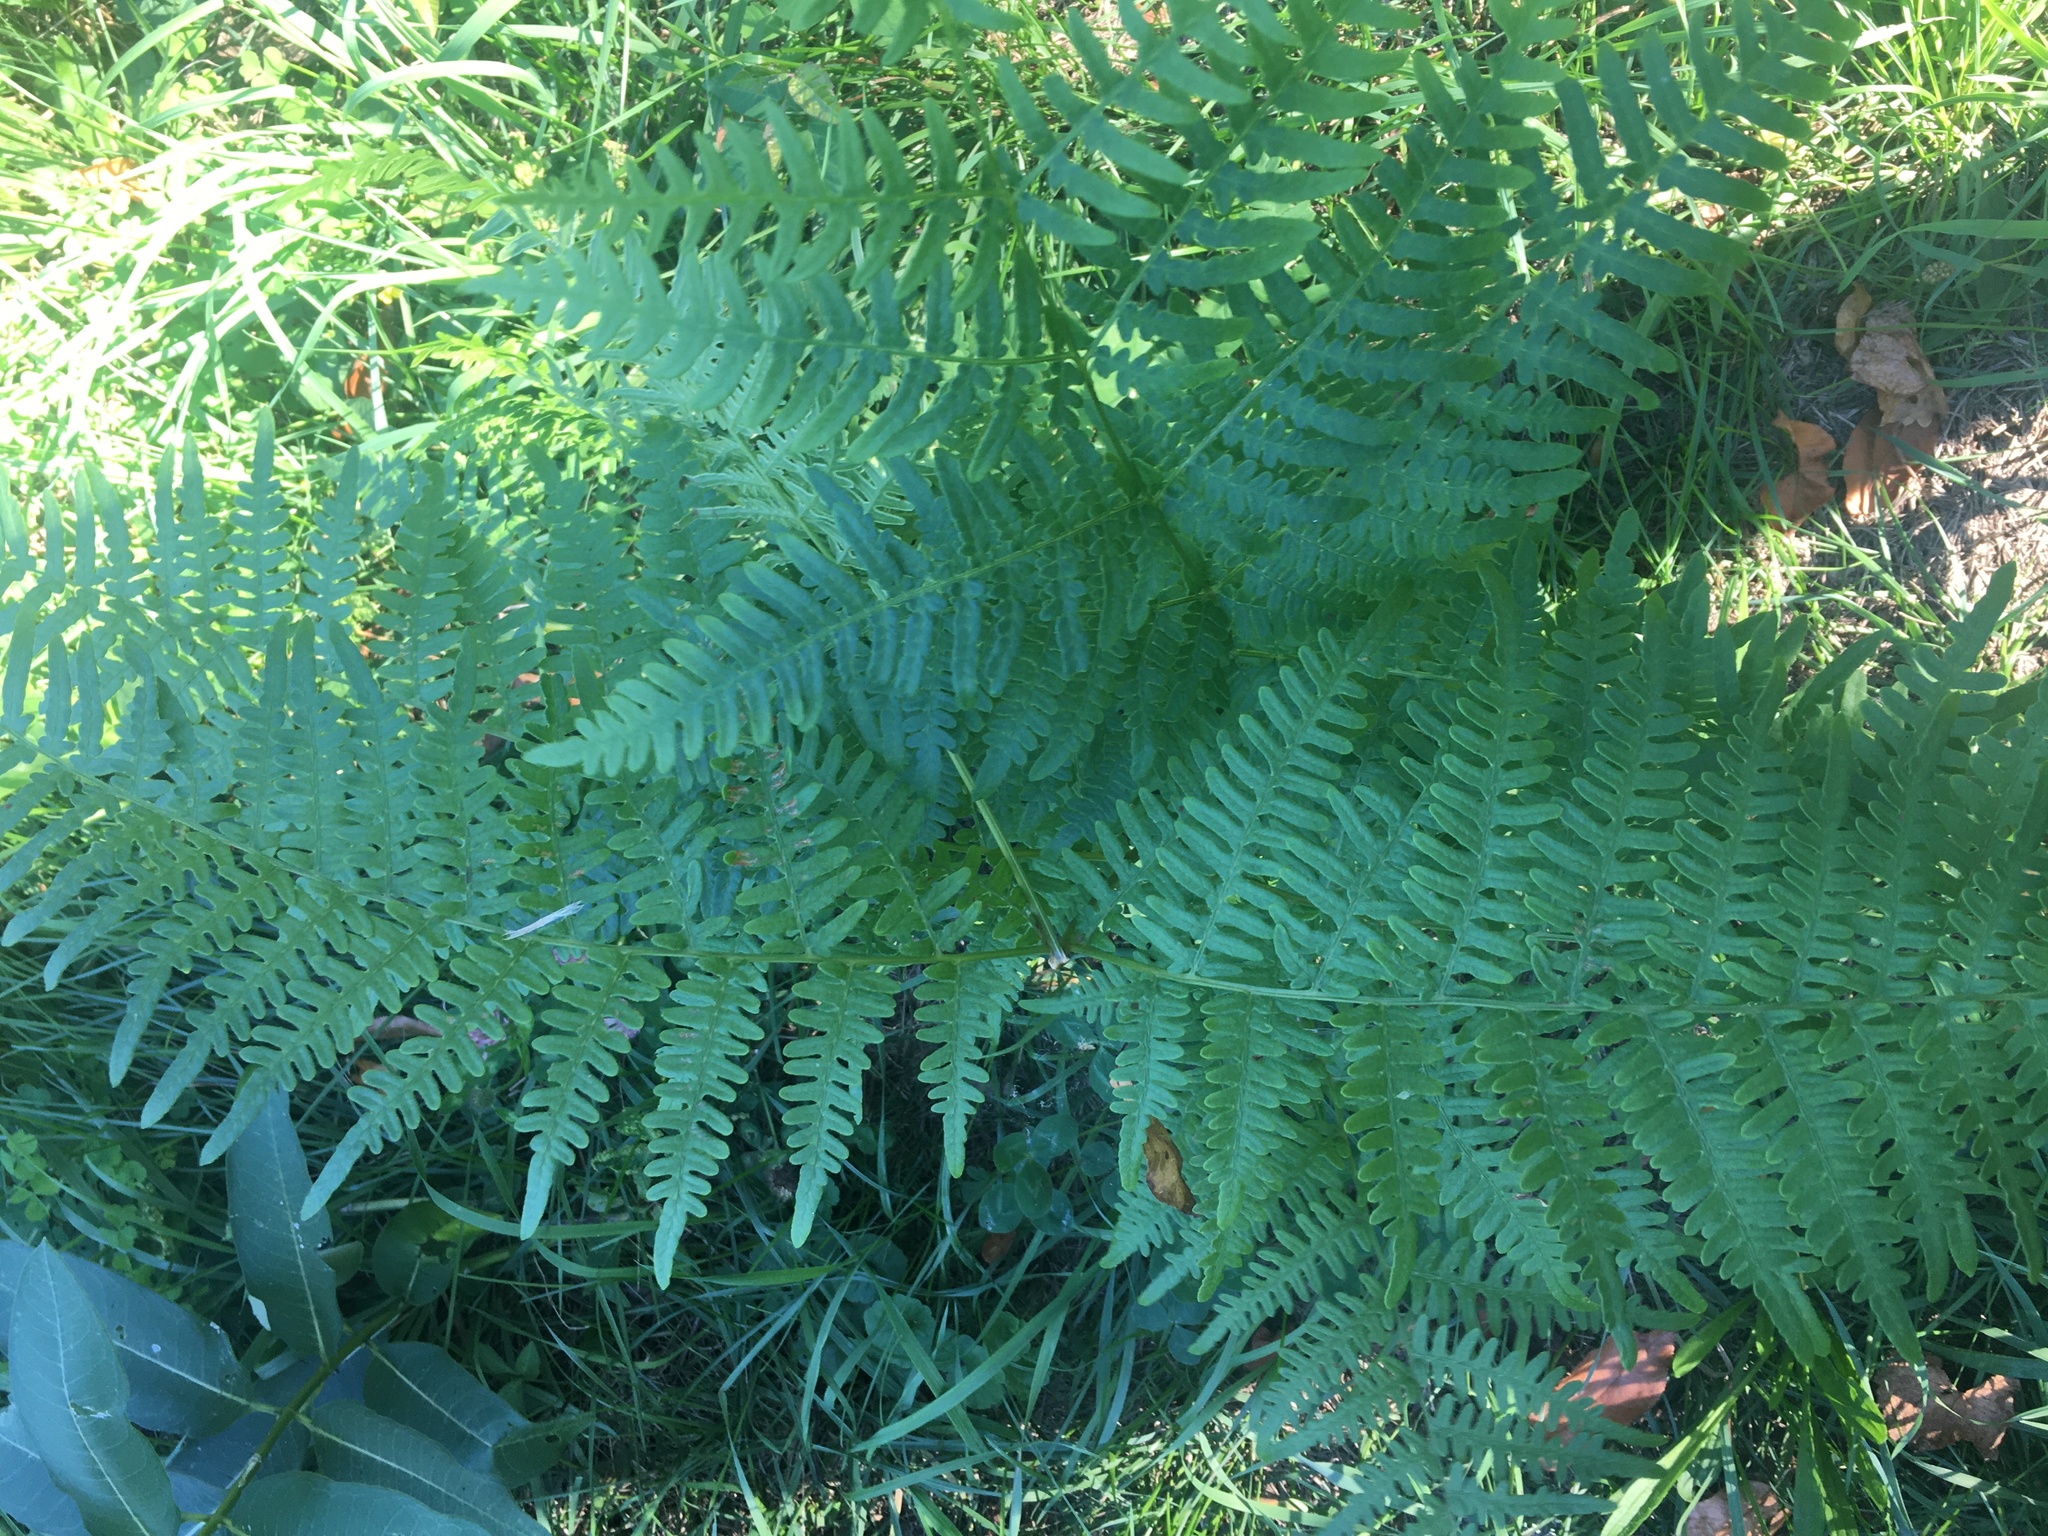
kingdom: Plantae
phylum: Tracheophyta
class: Polypodiopsida
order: Polypodiales
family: Dennstaedtiaceae
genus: Pteridium
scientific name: Pteridium aquilinum
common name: Bracken
